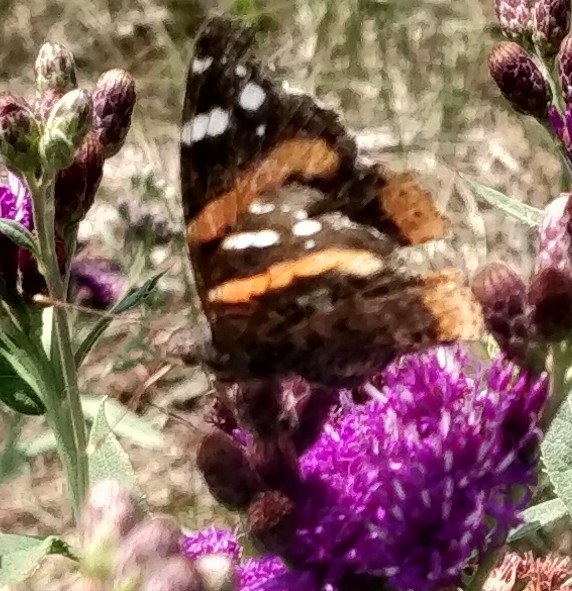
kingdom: Animalia
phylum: Arthropoda
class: Insecta
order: Lepidoptera
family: Nymphalidae
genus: Vanessa
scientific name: Vanessa atalanta
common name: Red admiral
